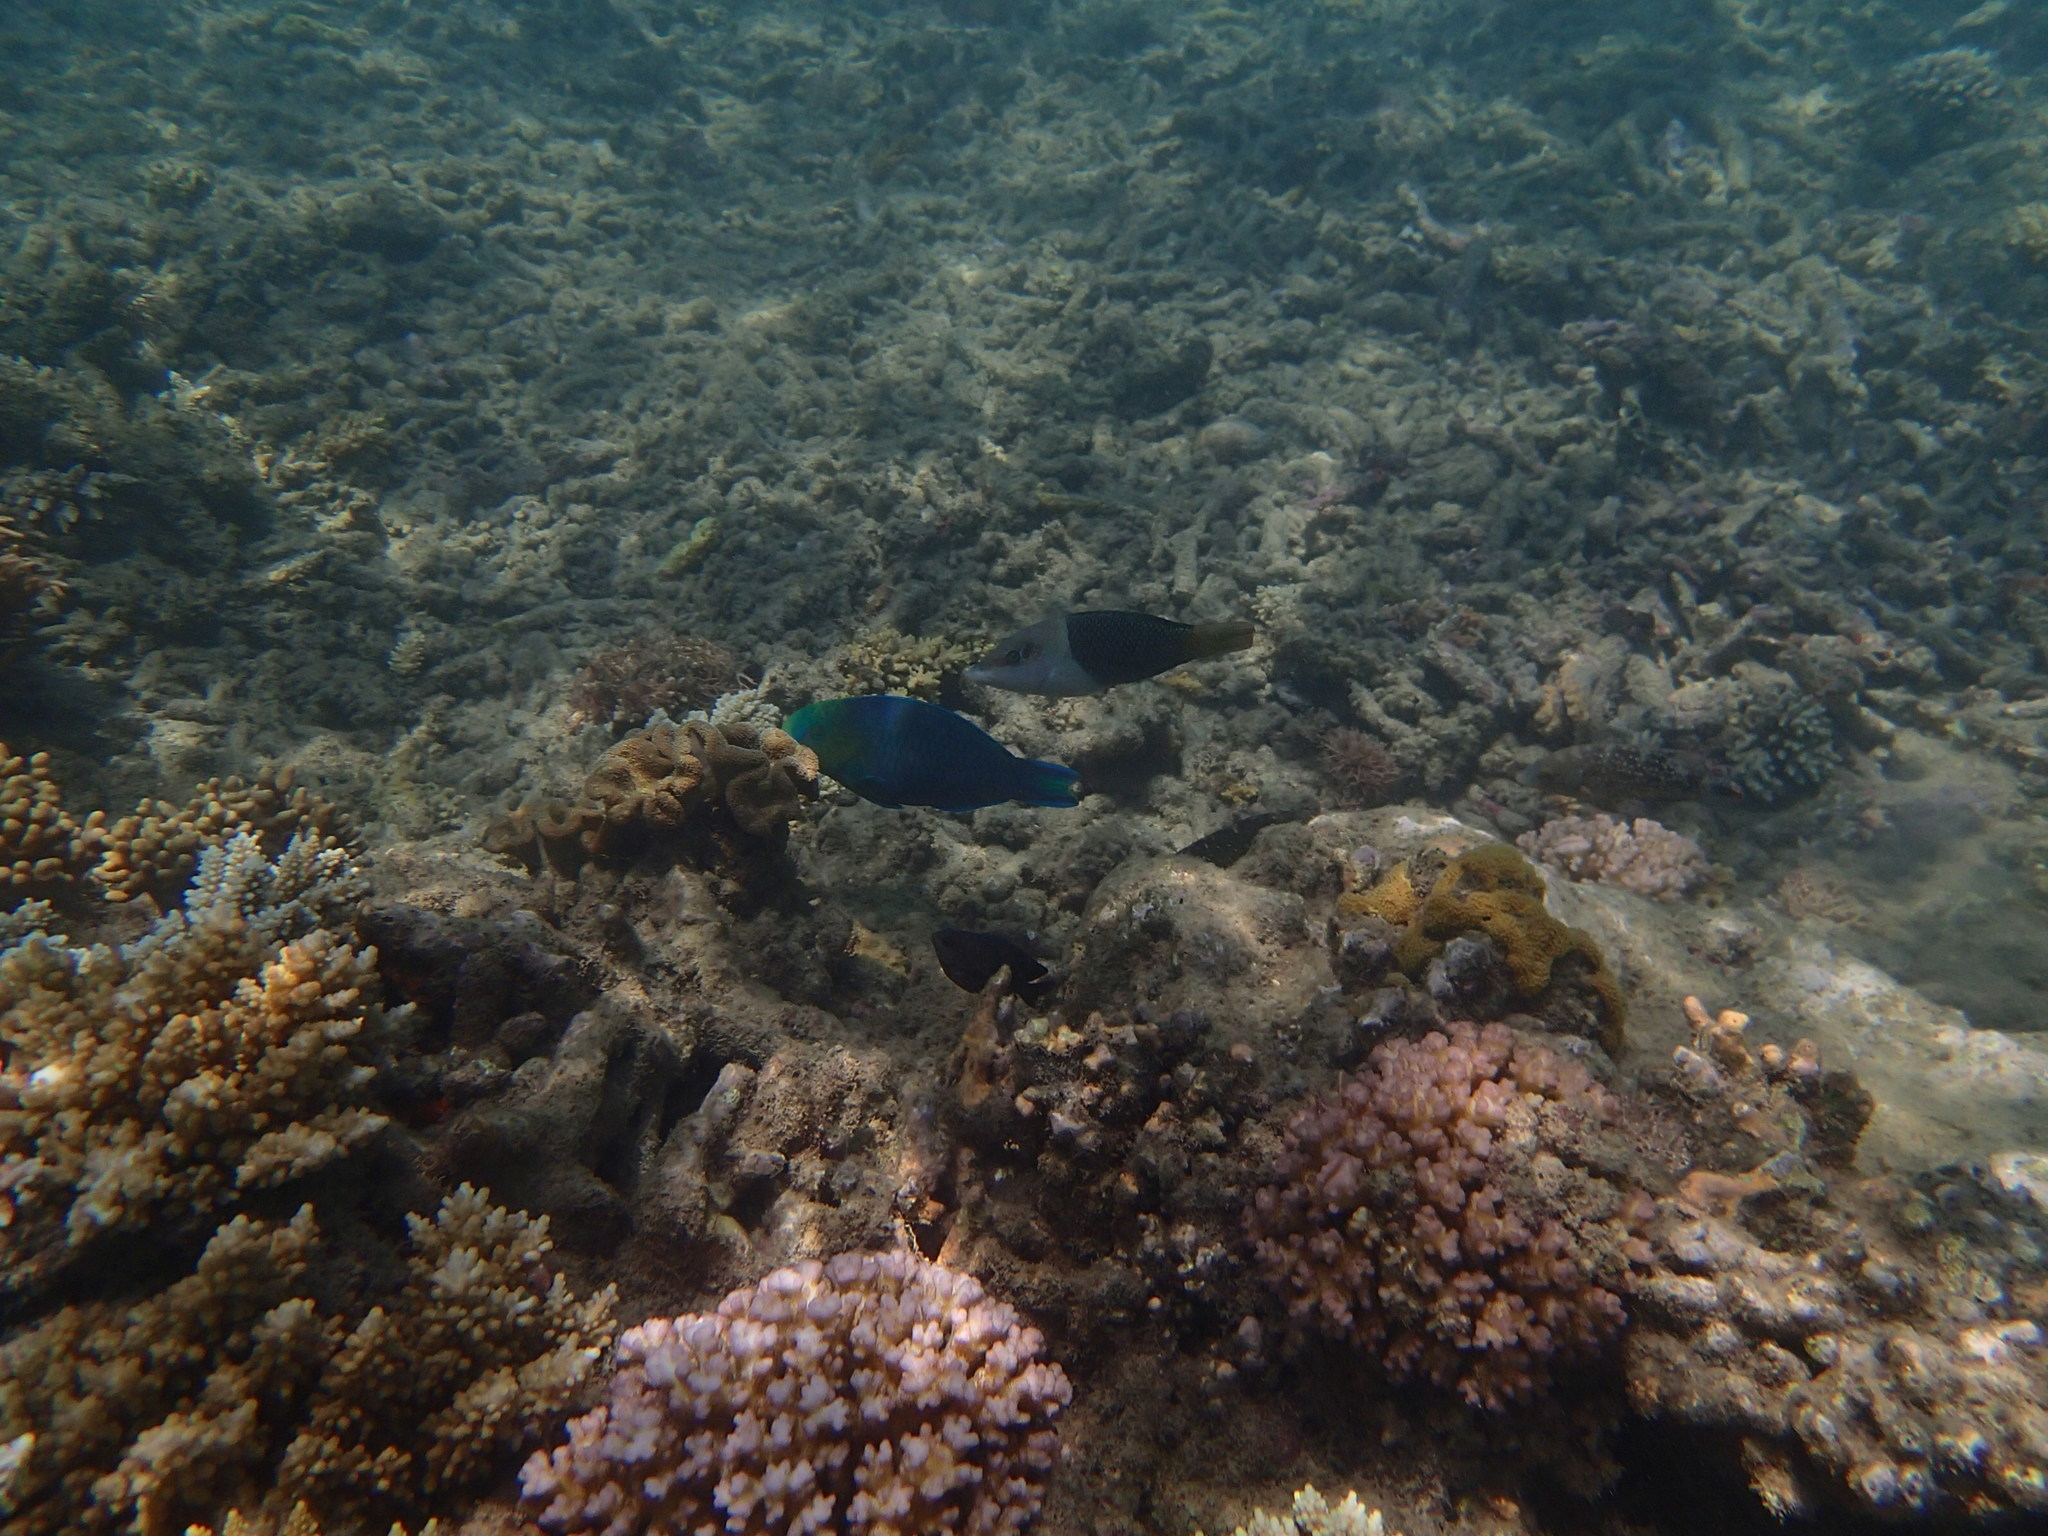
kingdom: Animalia
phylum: Chordata
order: Perciformes
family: Labridae
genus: Hemigymnus
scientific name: Hemigymnus melapterus
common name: Blackeye thicklip
